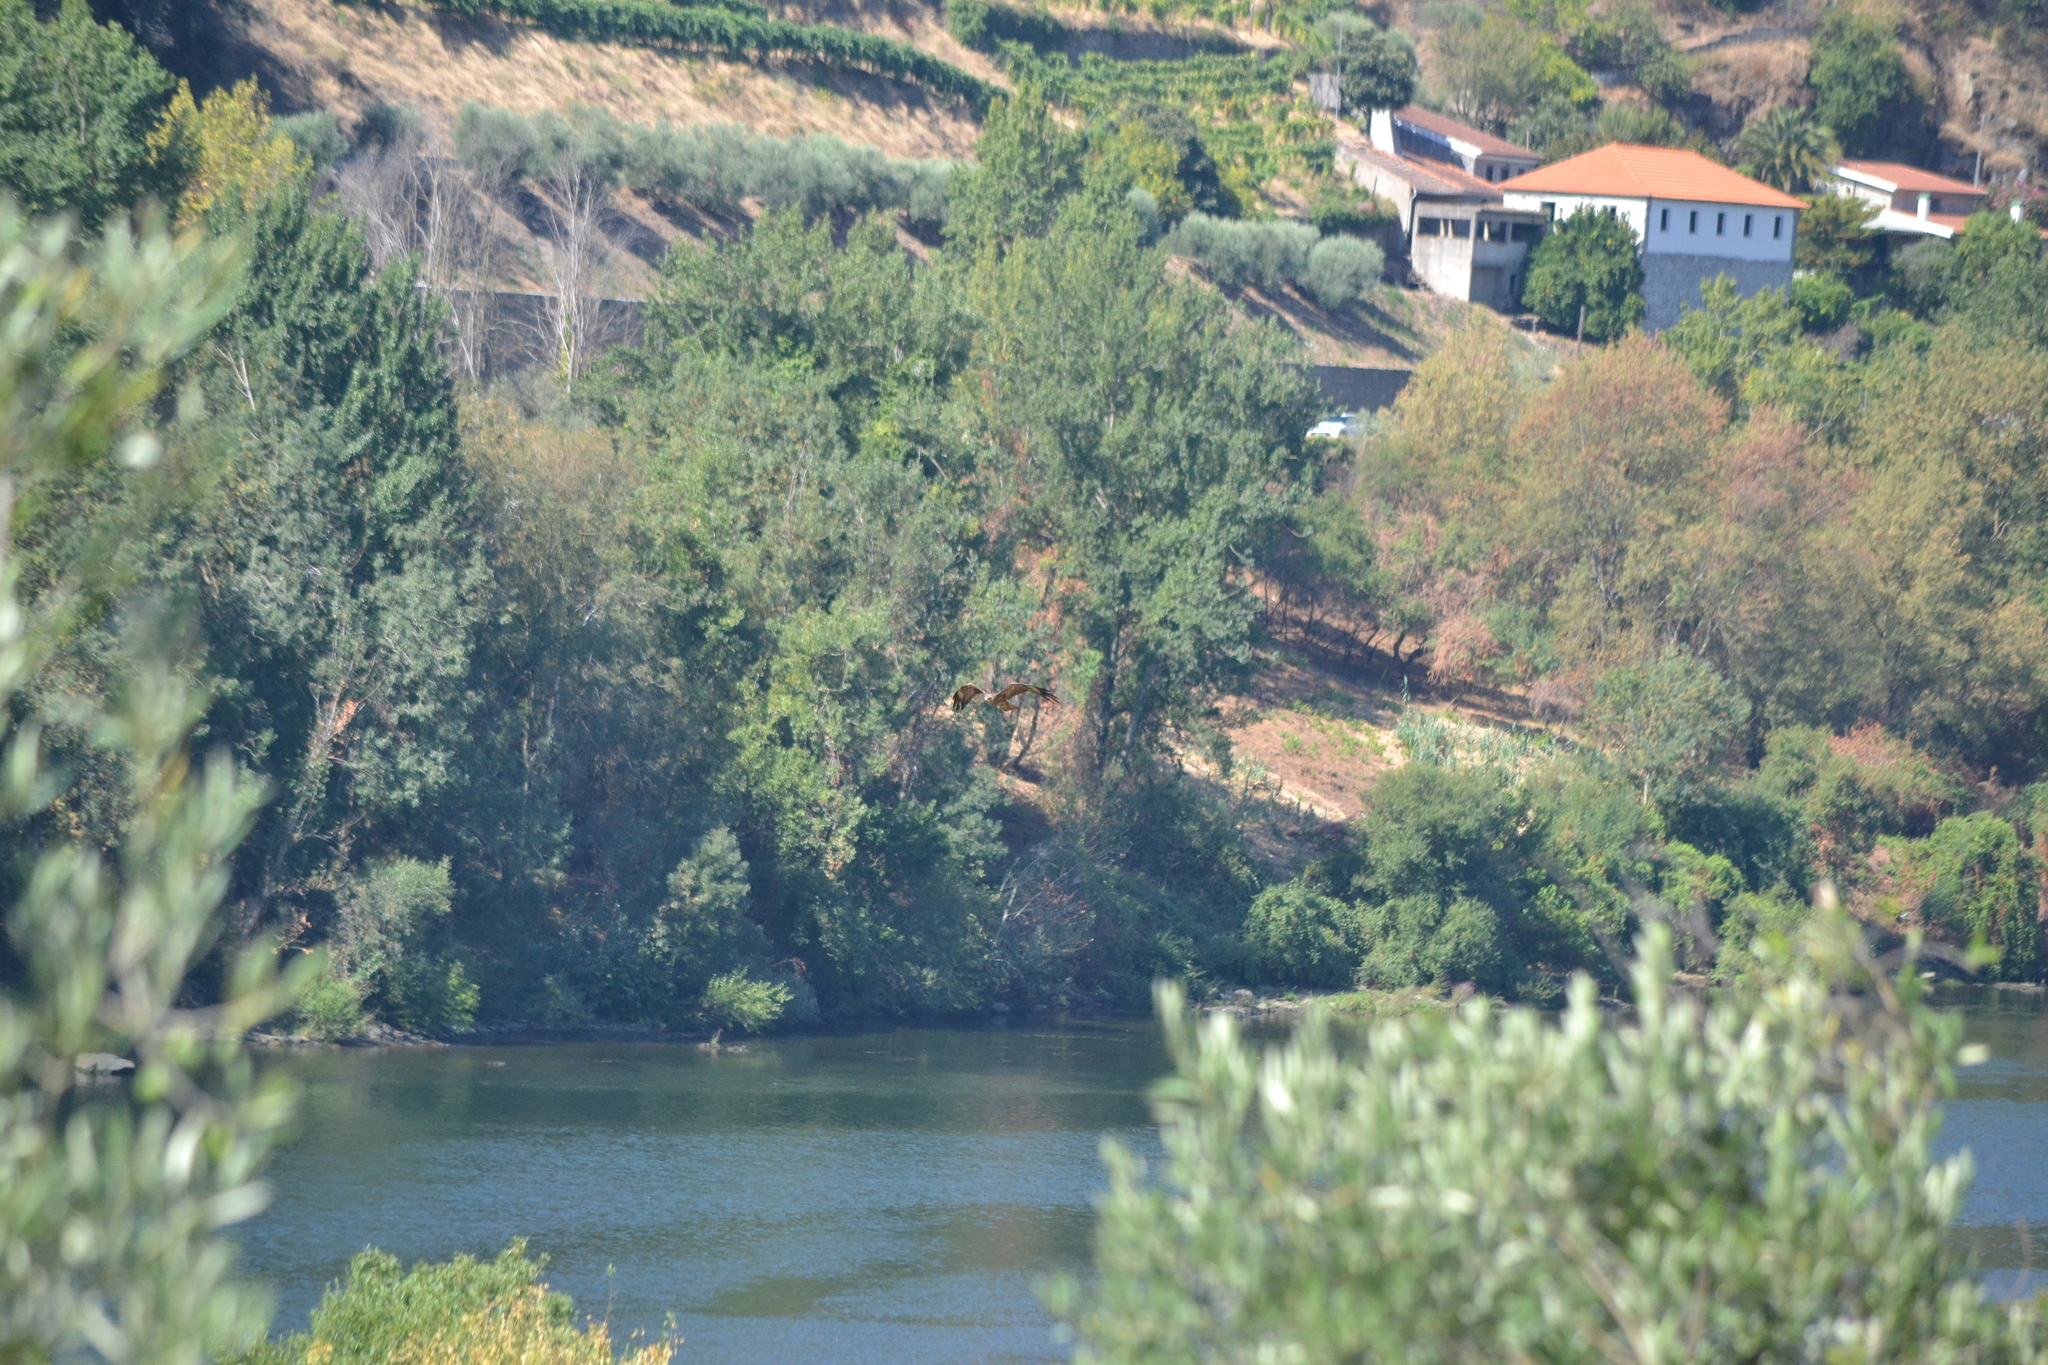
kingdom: Animalia
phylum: Chordata
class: Aves
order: Accipitriformes
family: Accipitridae
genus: Milvus
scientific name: Milvus migrans
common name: Black kite
